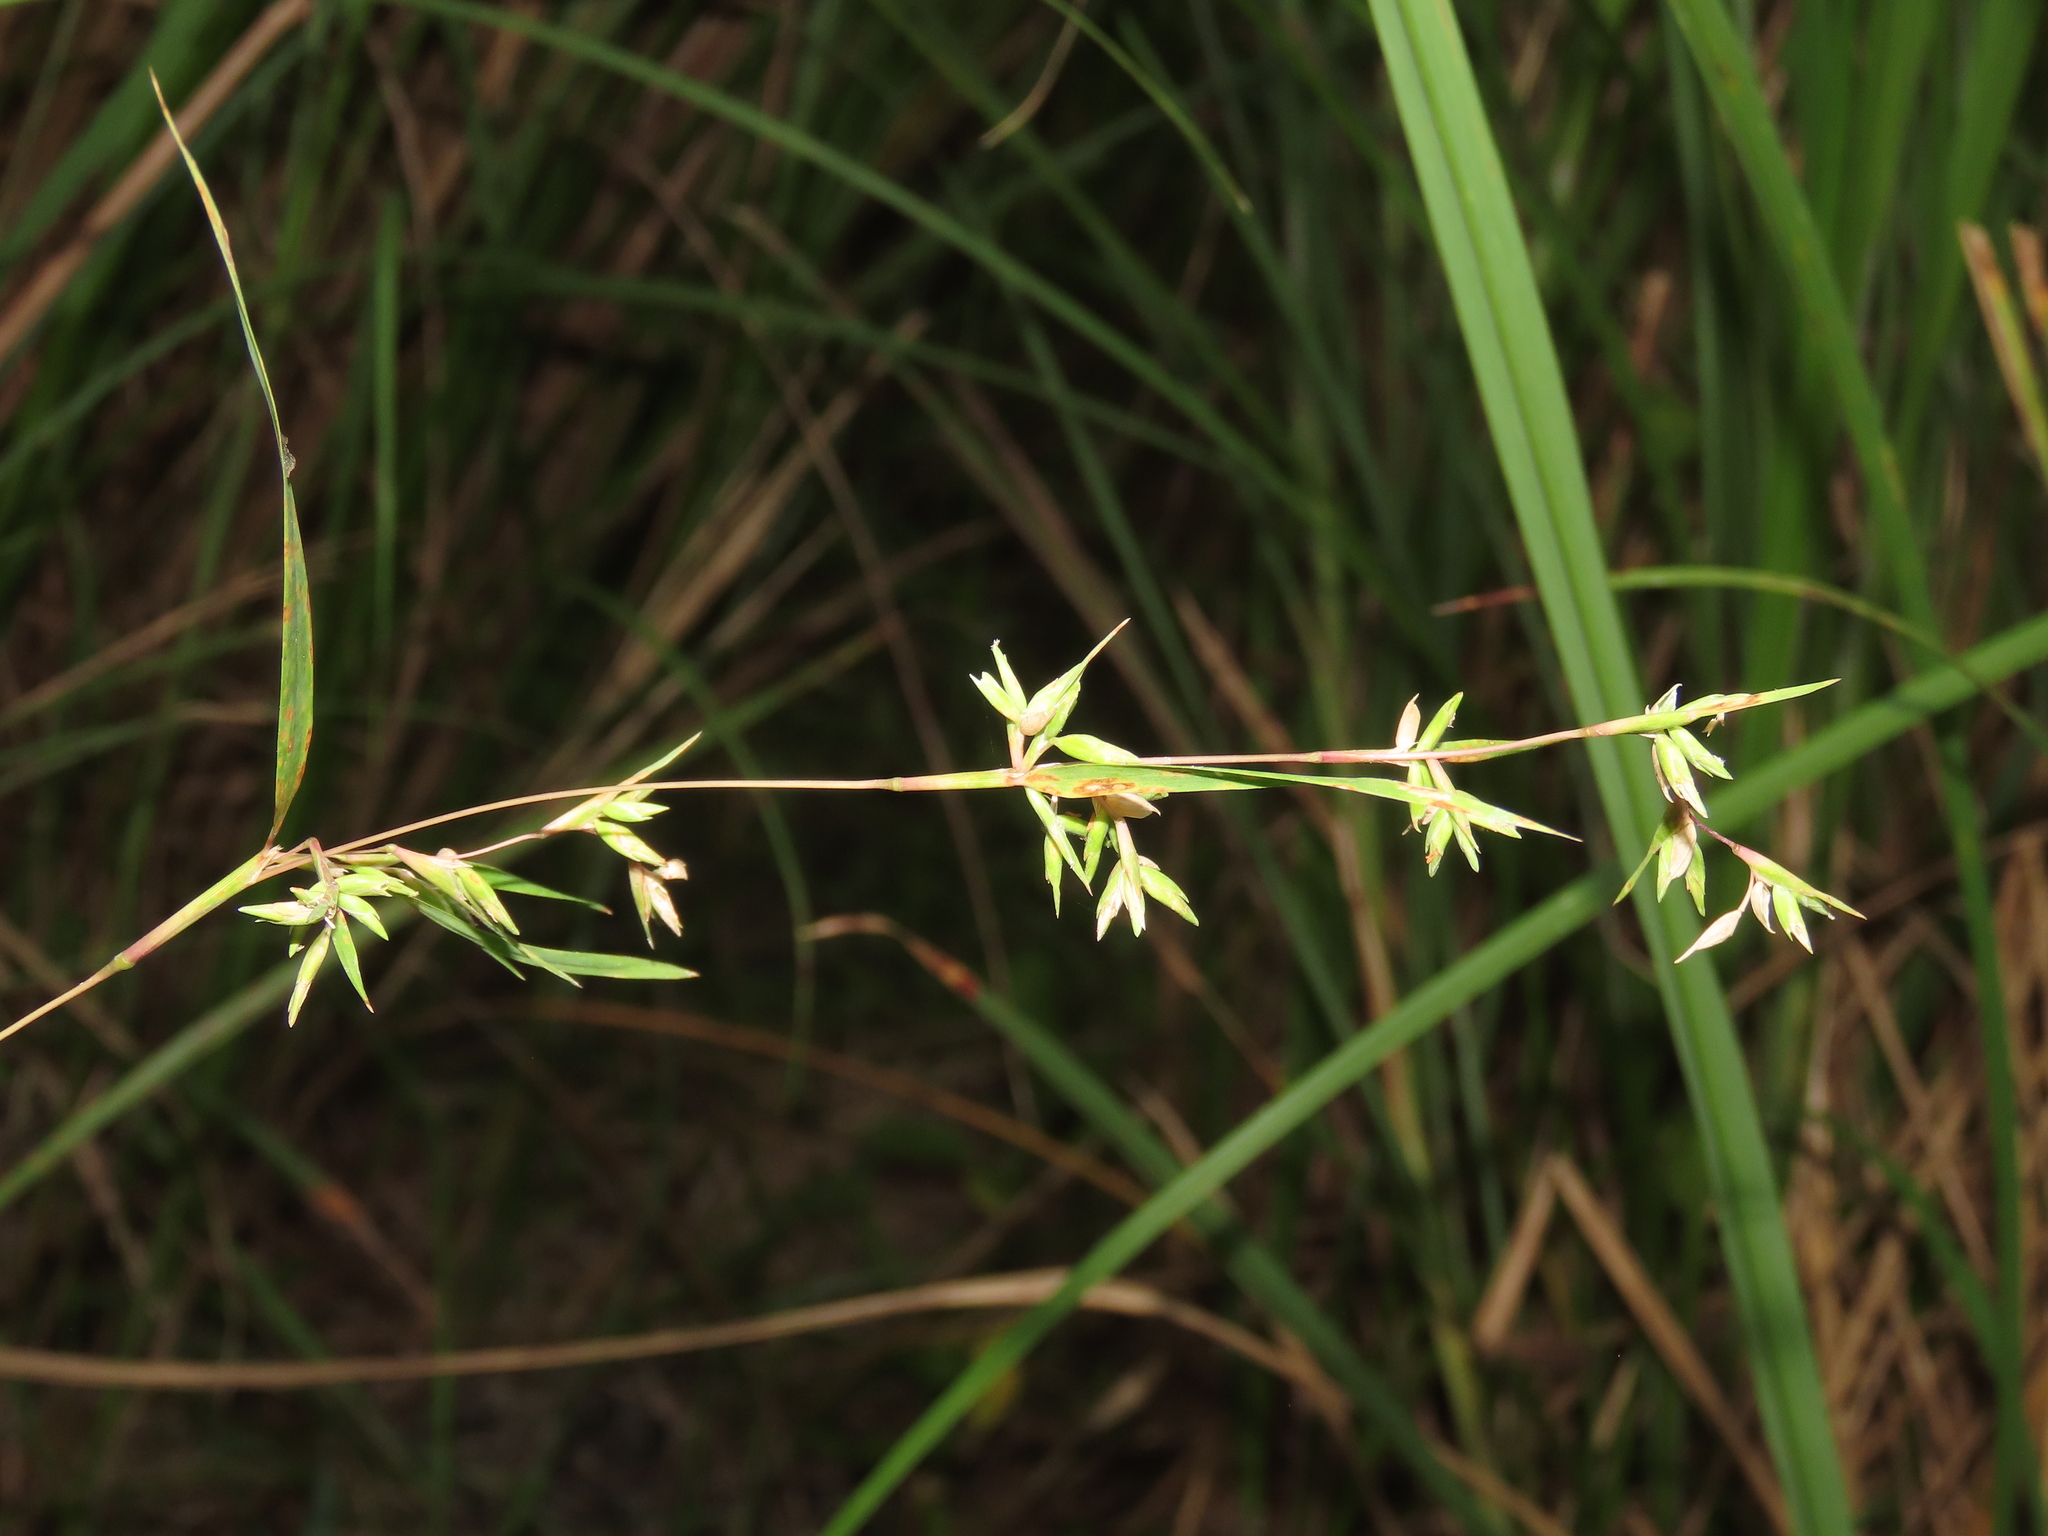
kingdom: Plantae
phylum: Tracheophyta
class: Liliopsida
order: Poales
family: Poaceae
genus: Apluda
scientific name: Apluda mutica
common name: Mauritian grass
